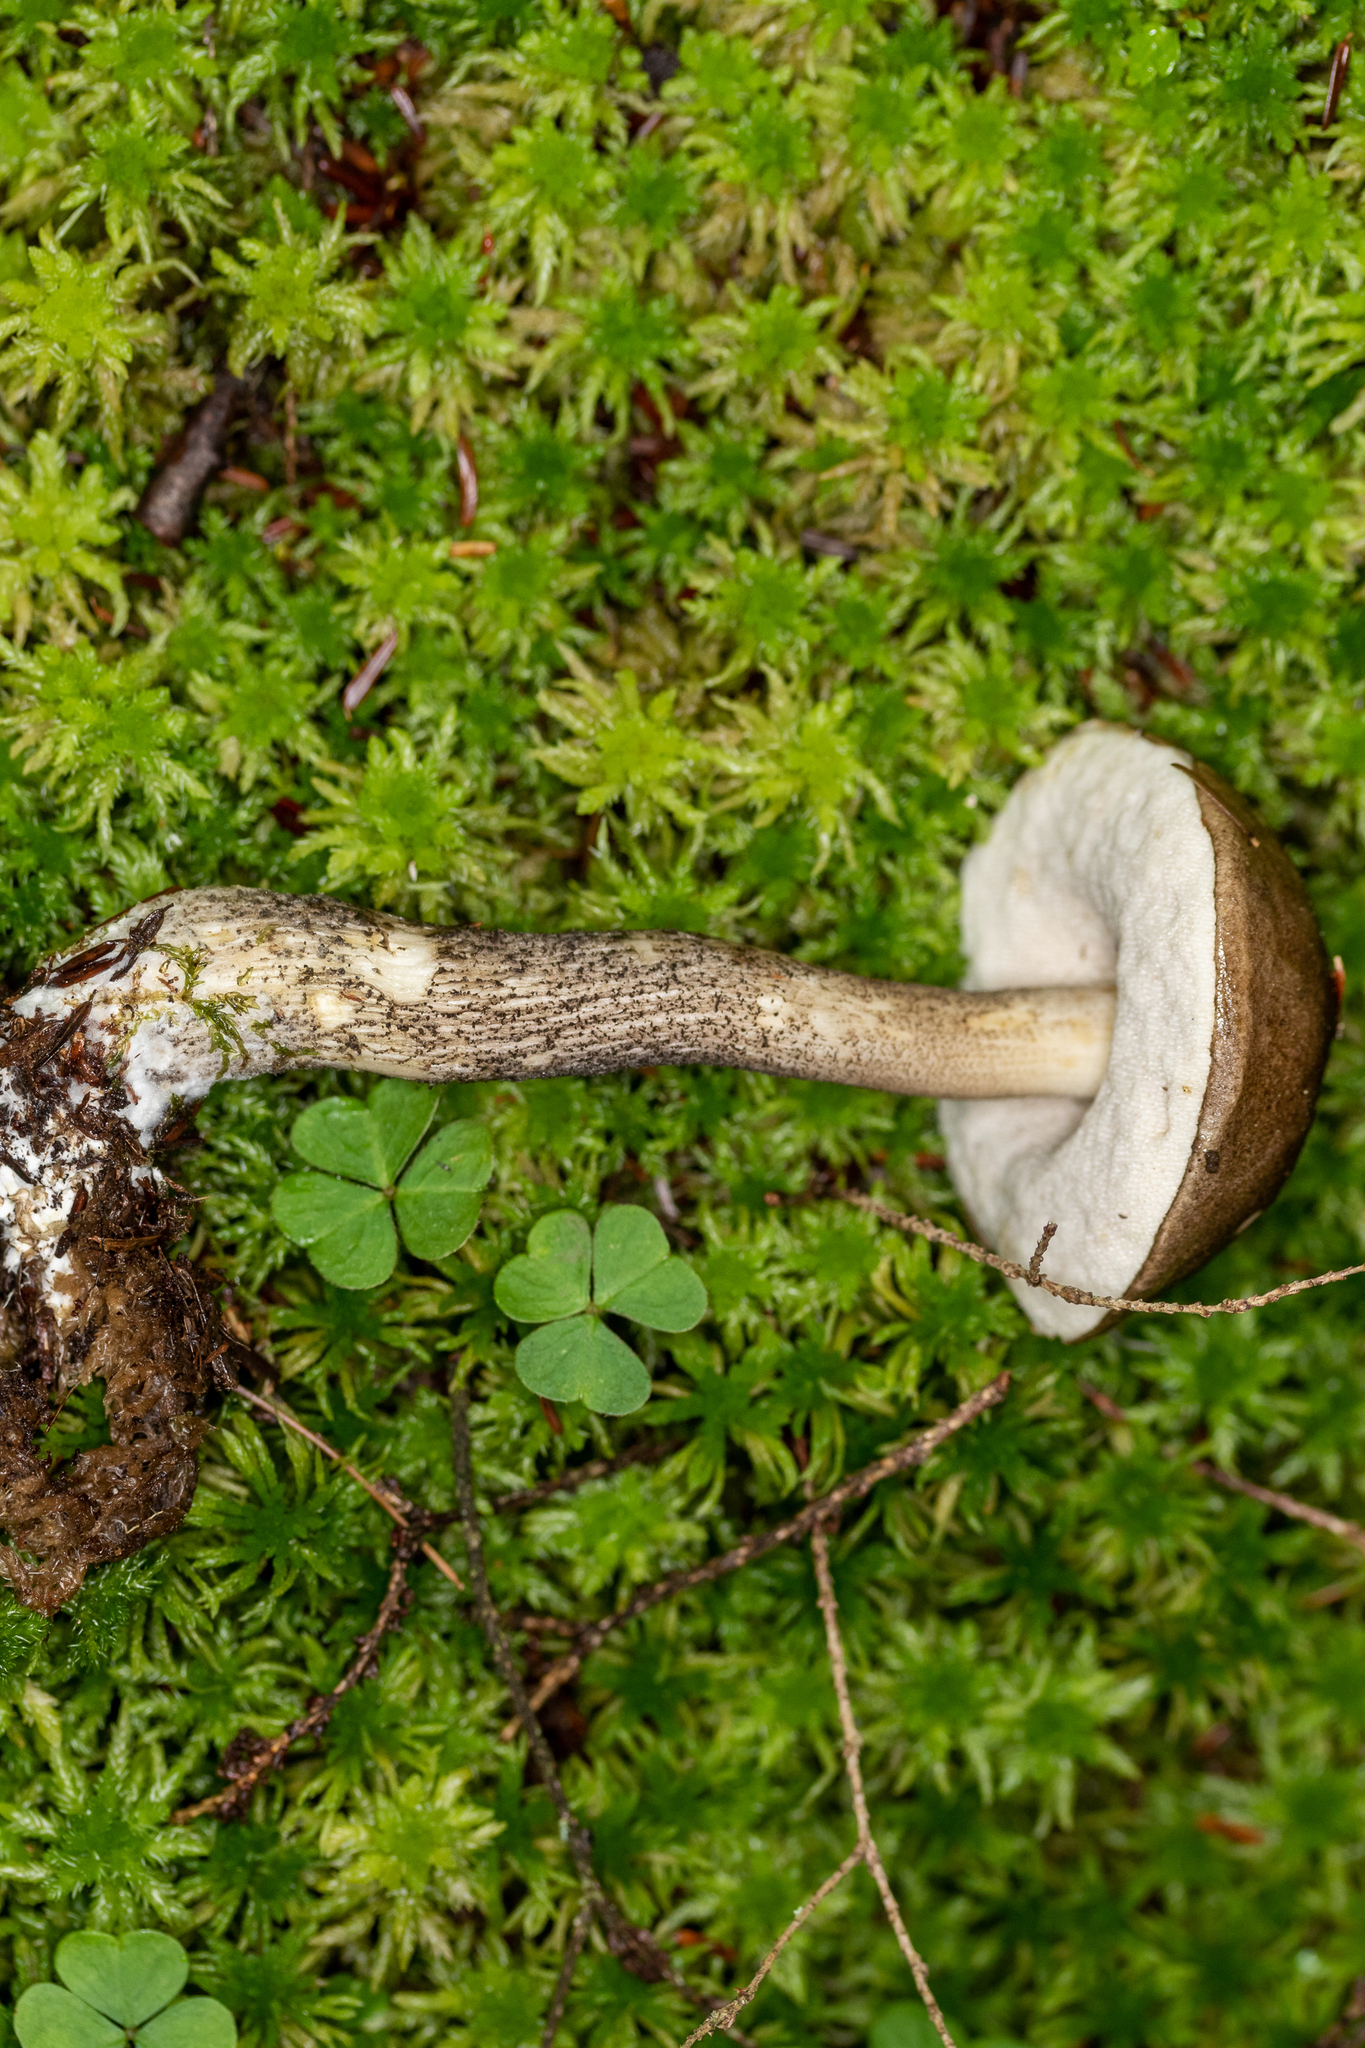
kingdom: Fungi
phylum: Basidiomycota
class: Agaricomycetes
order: Boletales
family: Boletaceae
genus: Leccinum
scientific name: Leccinum snellii
